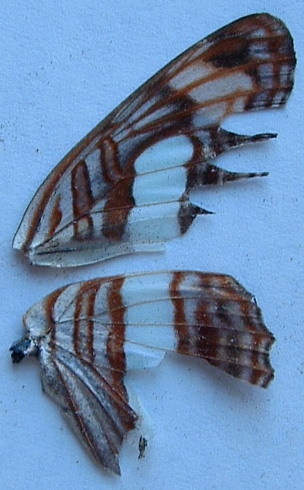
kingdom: Animalia
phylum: Arthropoda
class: Insecta
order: Lepidoptera
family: Nymphalidae
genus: Limenitis
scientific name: Limenitis iphiclus
